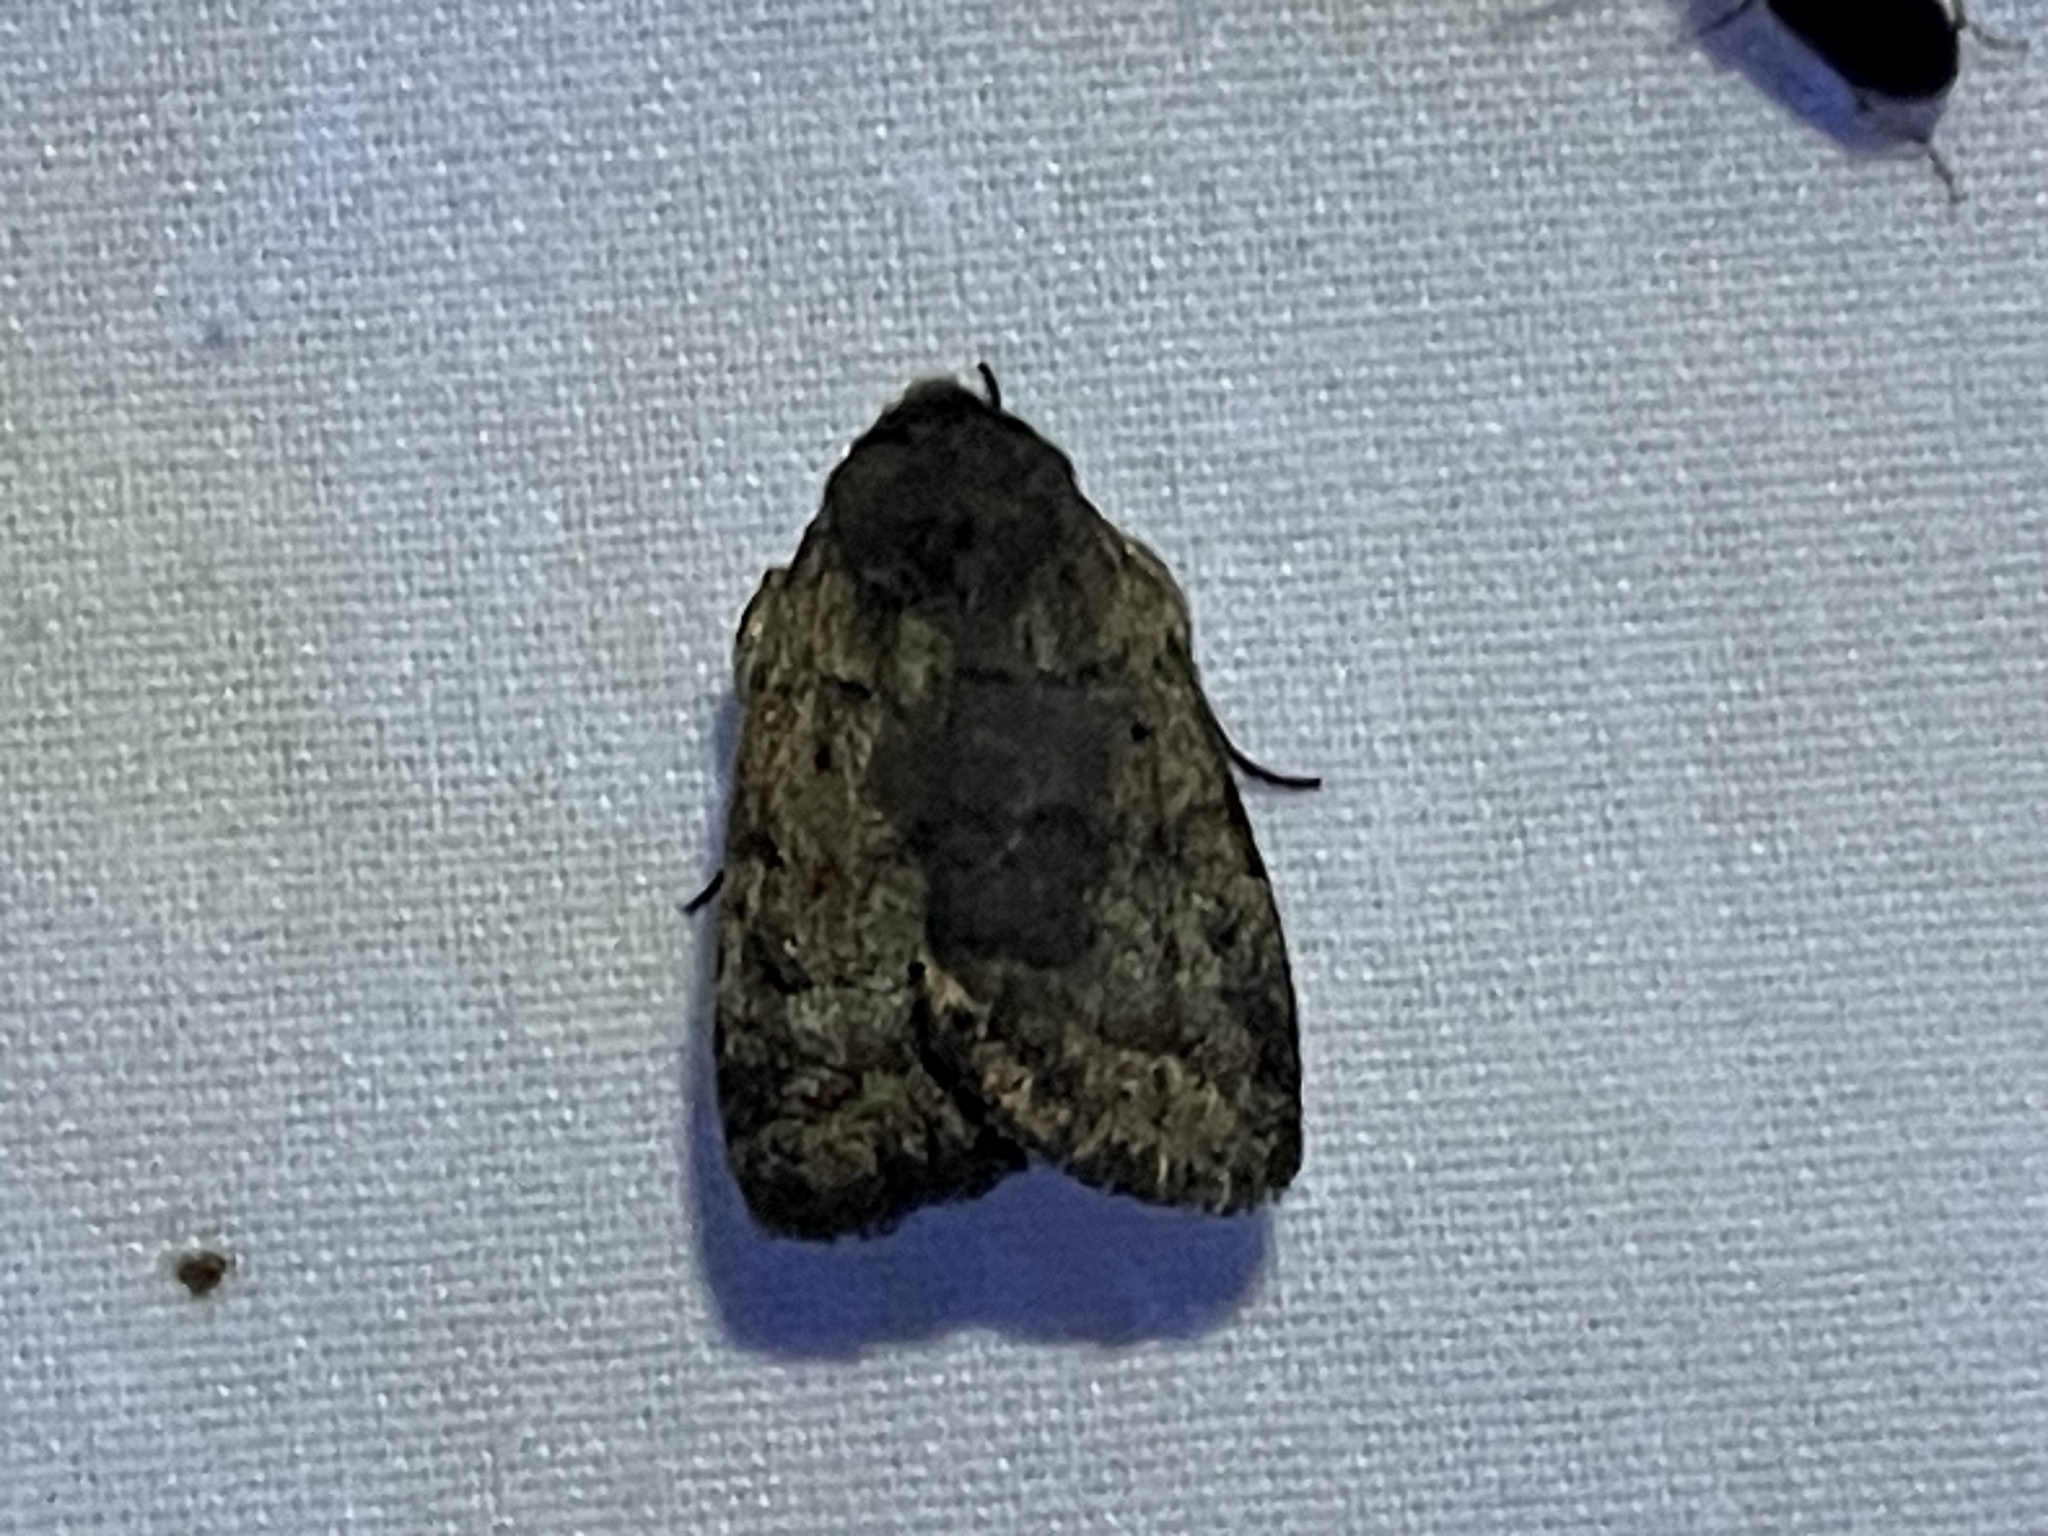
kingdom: Animalia
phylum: Arthropoda
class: Insecta
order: Lepidoptera
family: Noctuidae
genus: Athetis
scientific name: Athetis tarda
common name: Slowpoke moth
